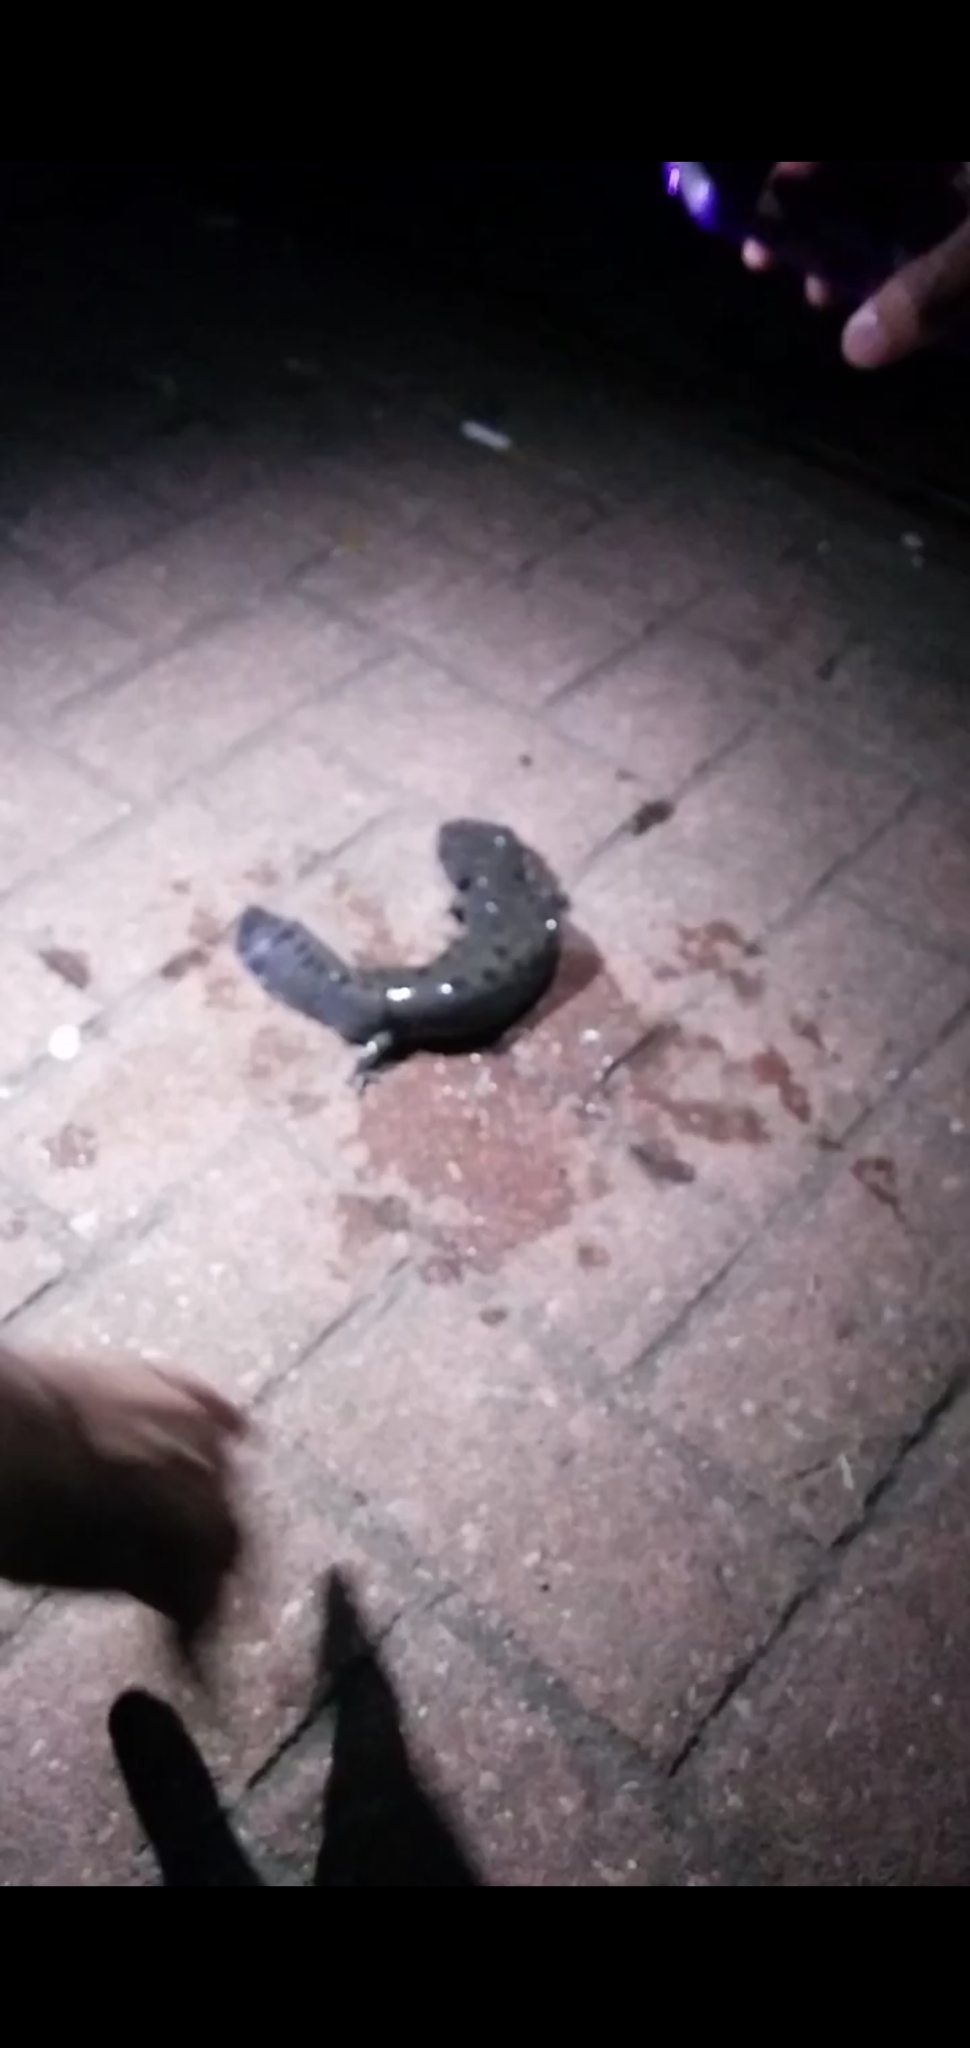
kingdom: Animalia
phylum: Chordata
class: Amphibia
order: Caudata
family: Proteidae
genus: Necturus
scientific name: Necturus maculosus
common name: Mudpuppy
